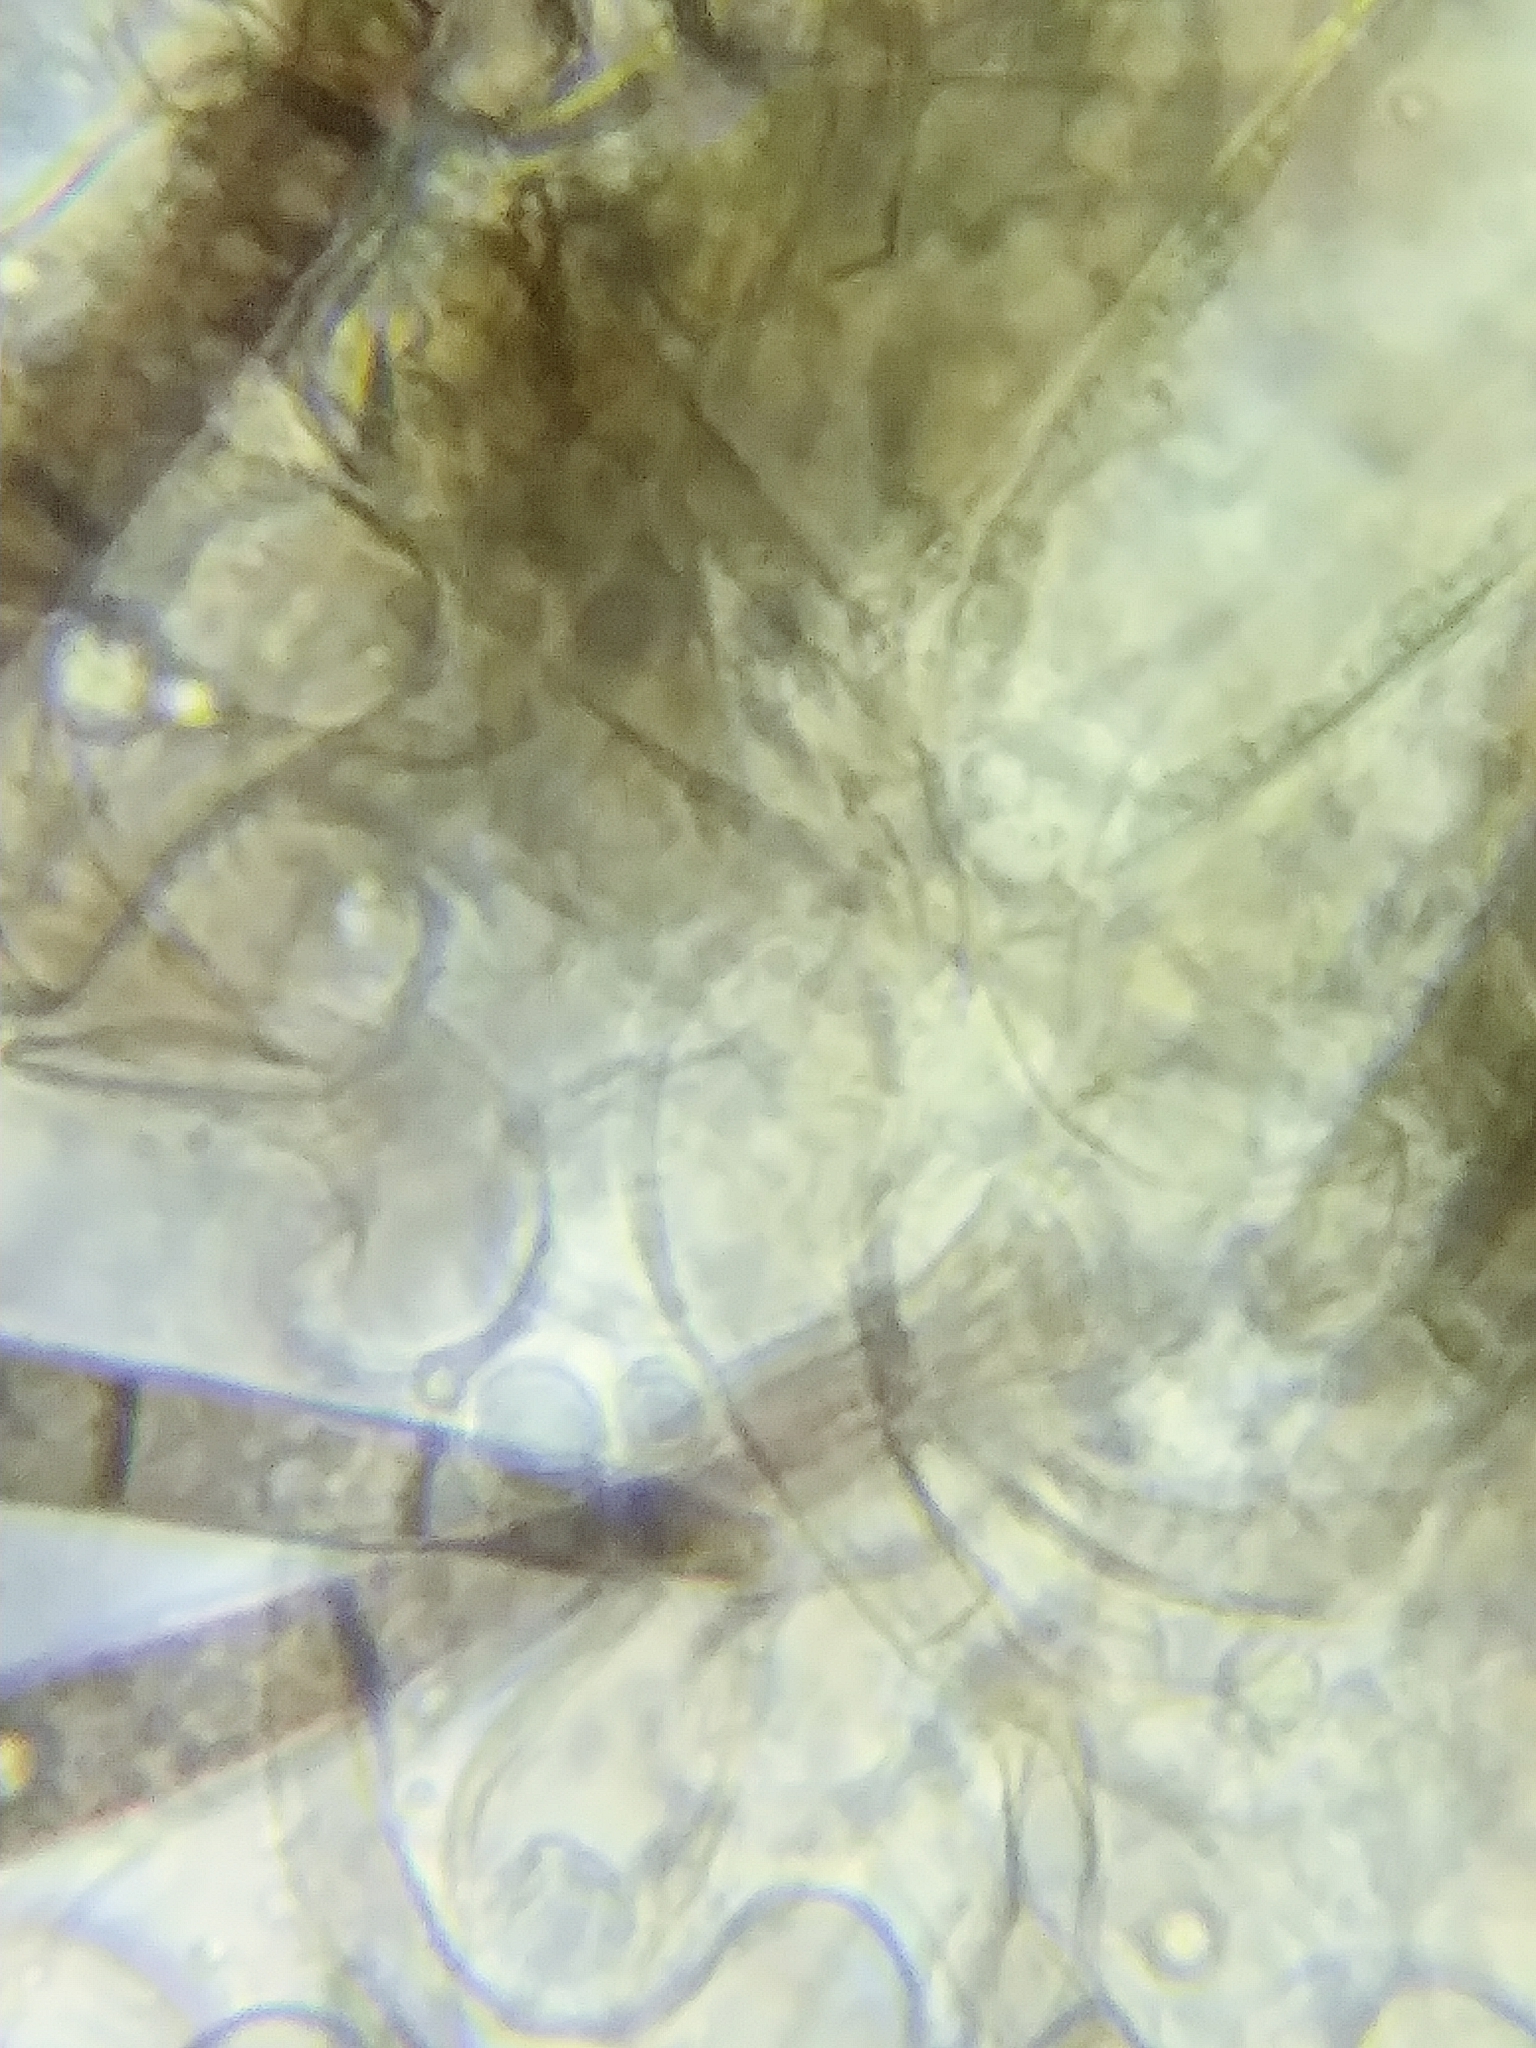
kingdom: Fungi
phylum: Ascomycota
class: Geoglossomycetes
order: Geoglossales
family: Geoglossaceae
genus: Geoglossum
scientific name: Geoglossum barlae
